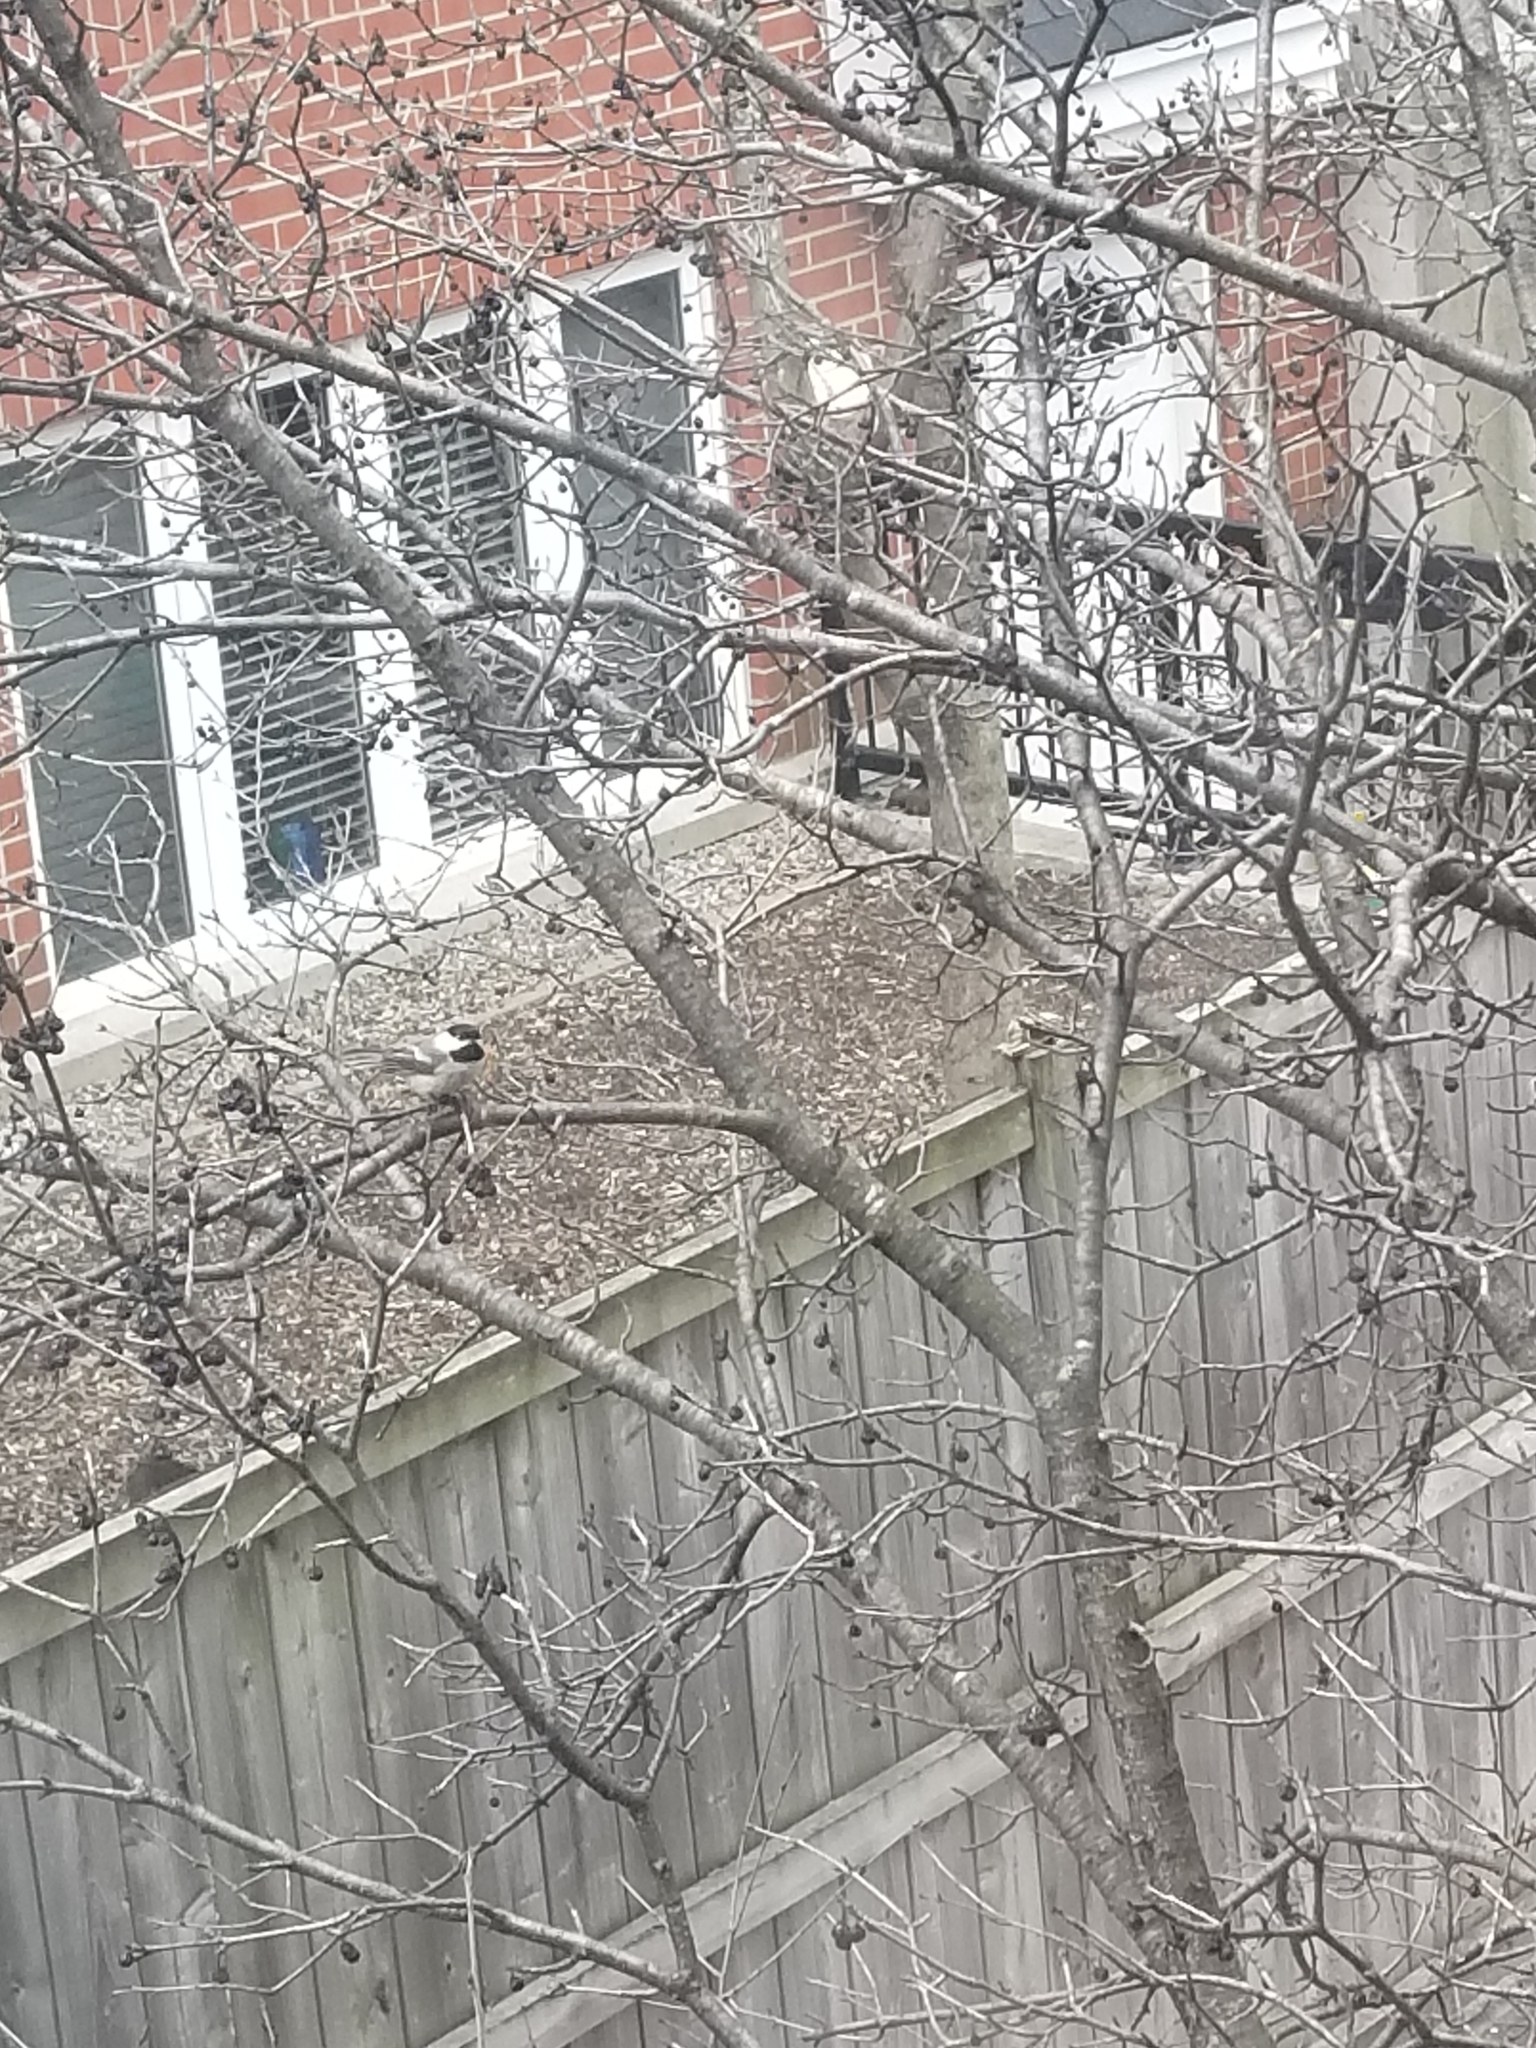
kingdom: Animalia
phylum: Chordata
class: Aves
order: Passeriformes
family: Paridae
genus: Poecile
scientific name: Poecile atricapillus
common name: Black-capped chickadee
